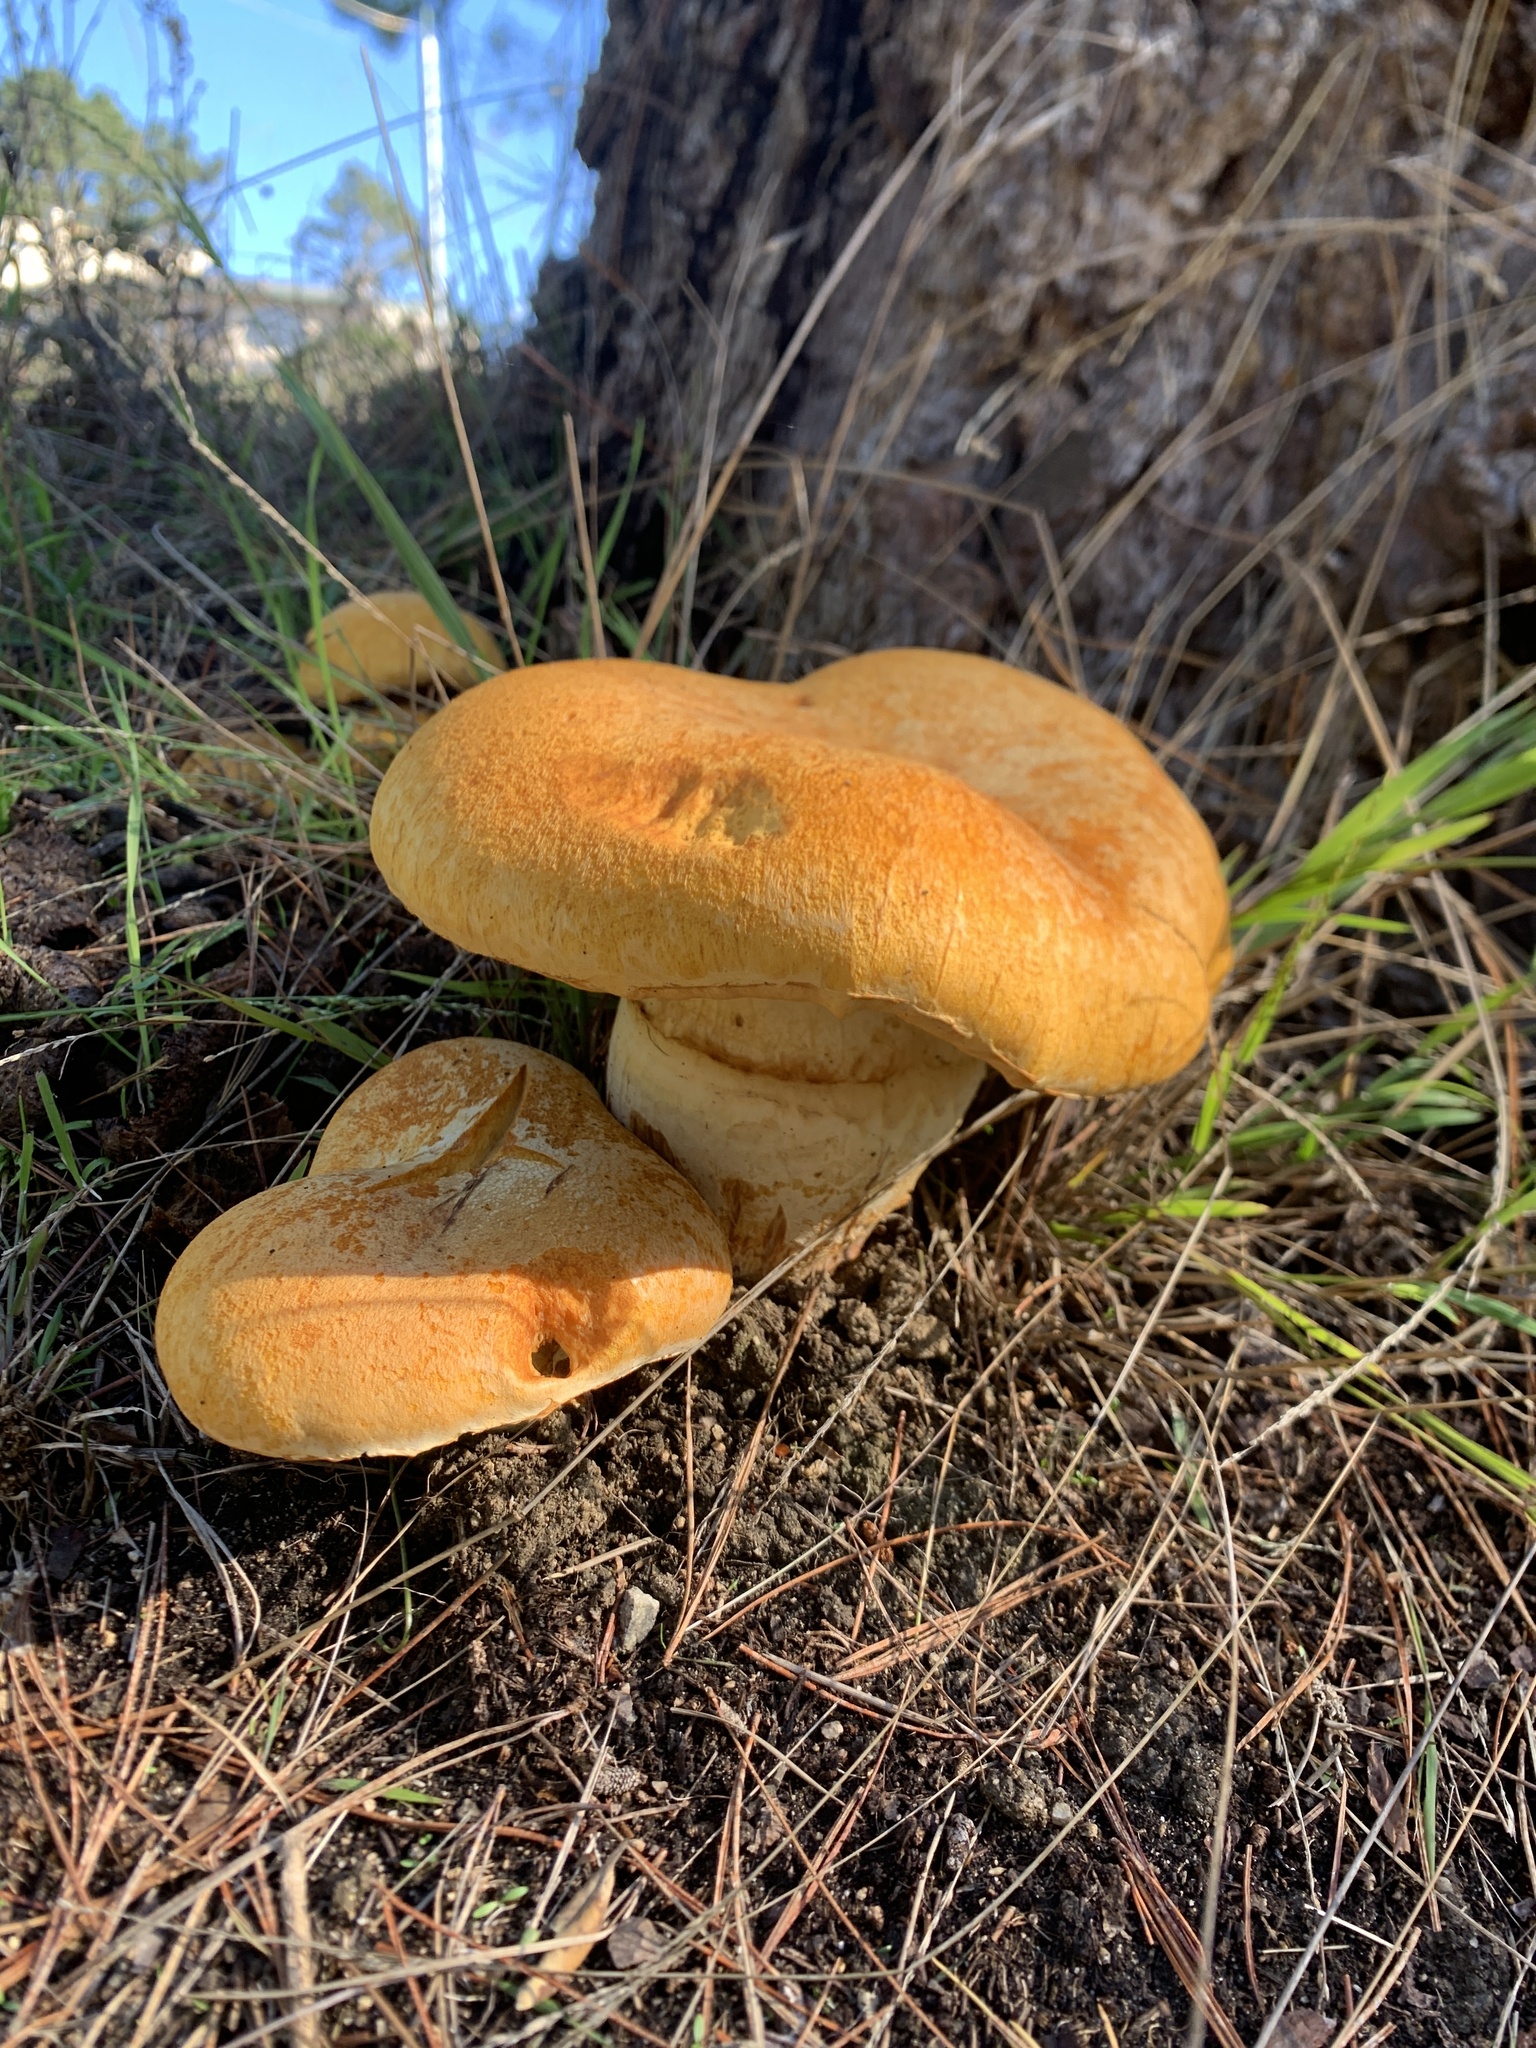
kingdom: Fungi
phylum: Basidiomycota
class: Agaricomycetes
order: Agaricales
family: Hymenogastraceae
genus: Gymnopilus
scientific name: Gymnopilus ventricosus
